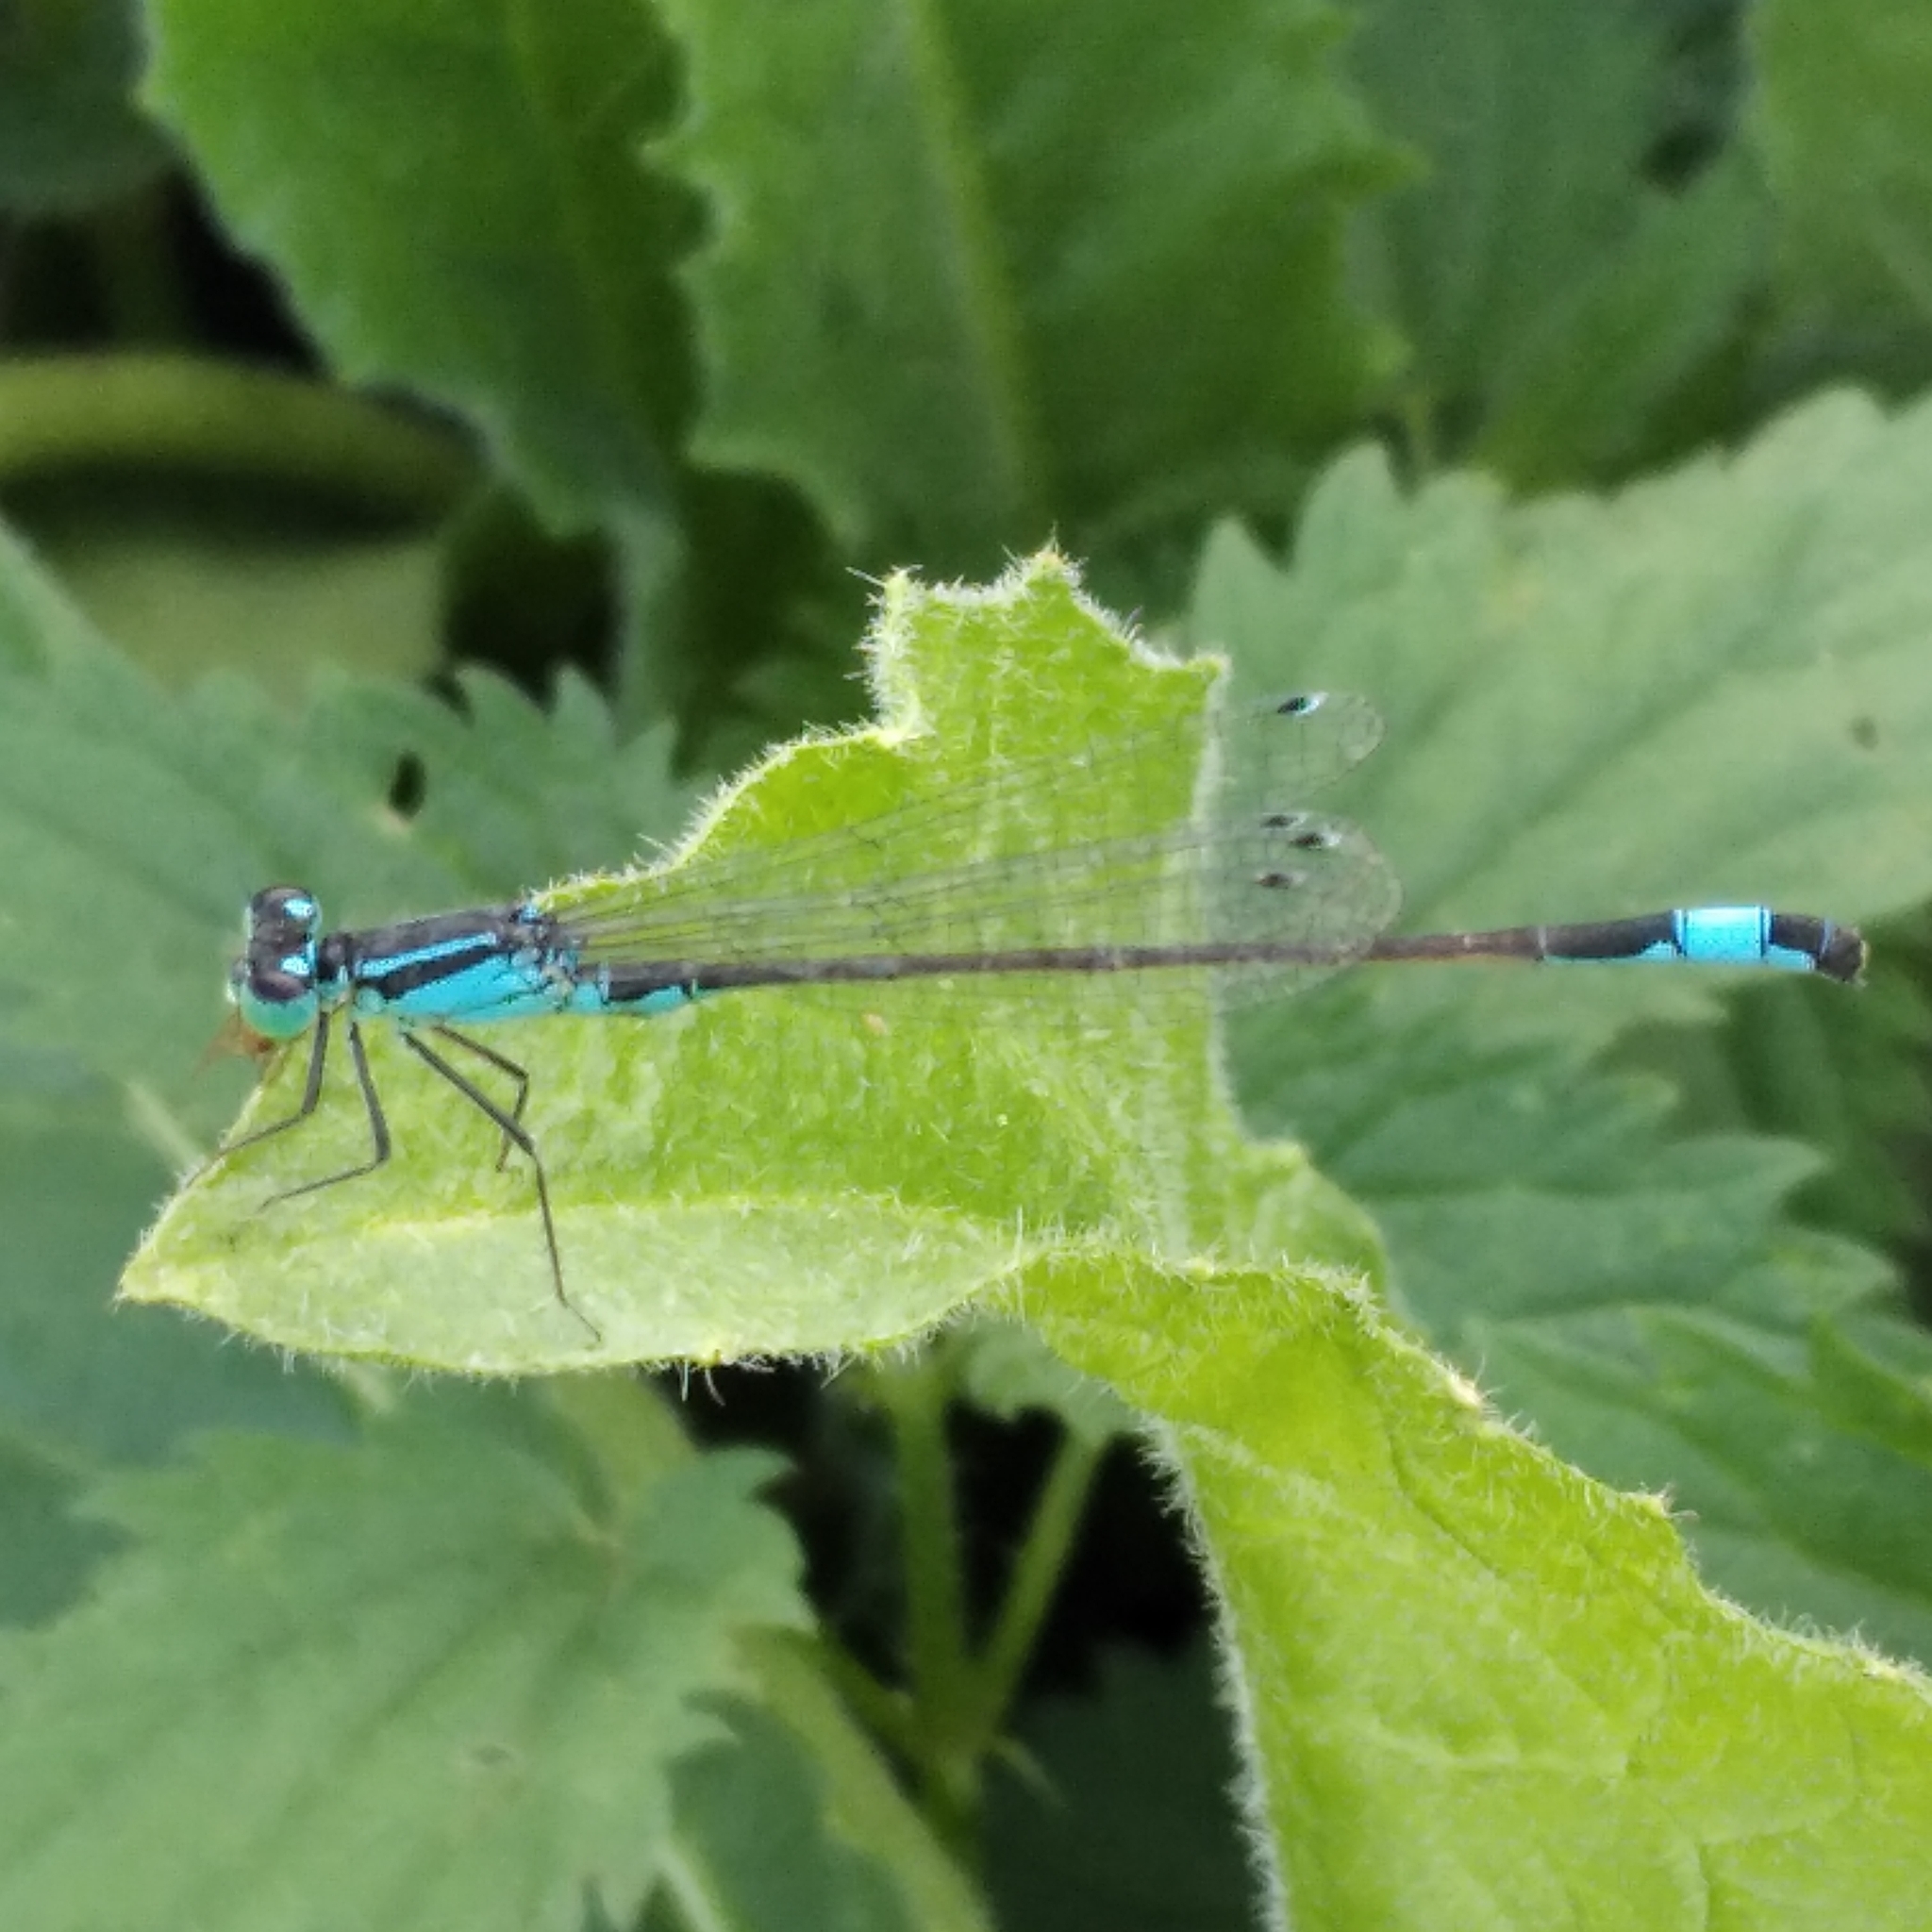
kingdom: Animalia
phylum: Arthropoda
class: Insecta
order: Odonata
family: Coenagrionidae
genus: Ischnura
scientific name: Ischnura elegans
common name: Blue-tailed damselfly
